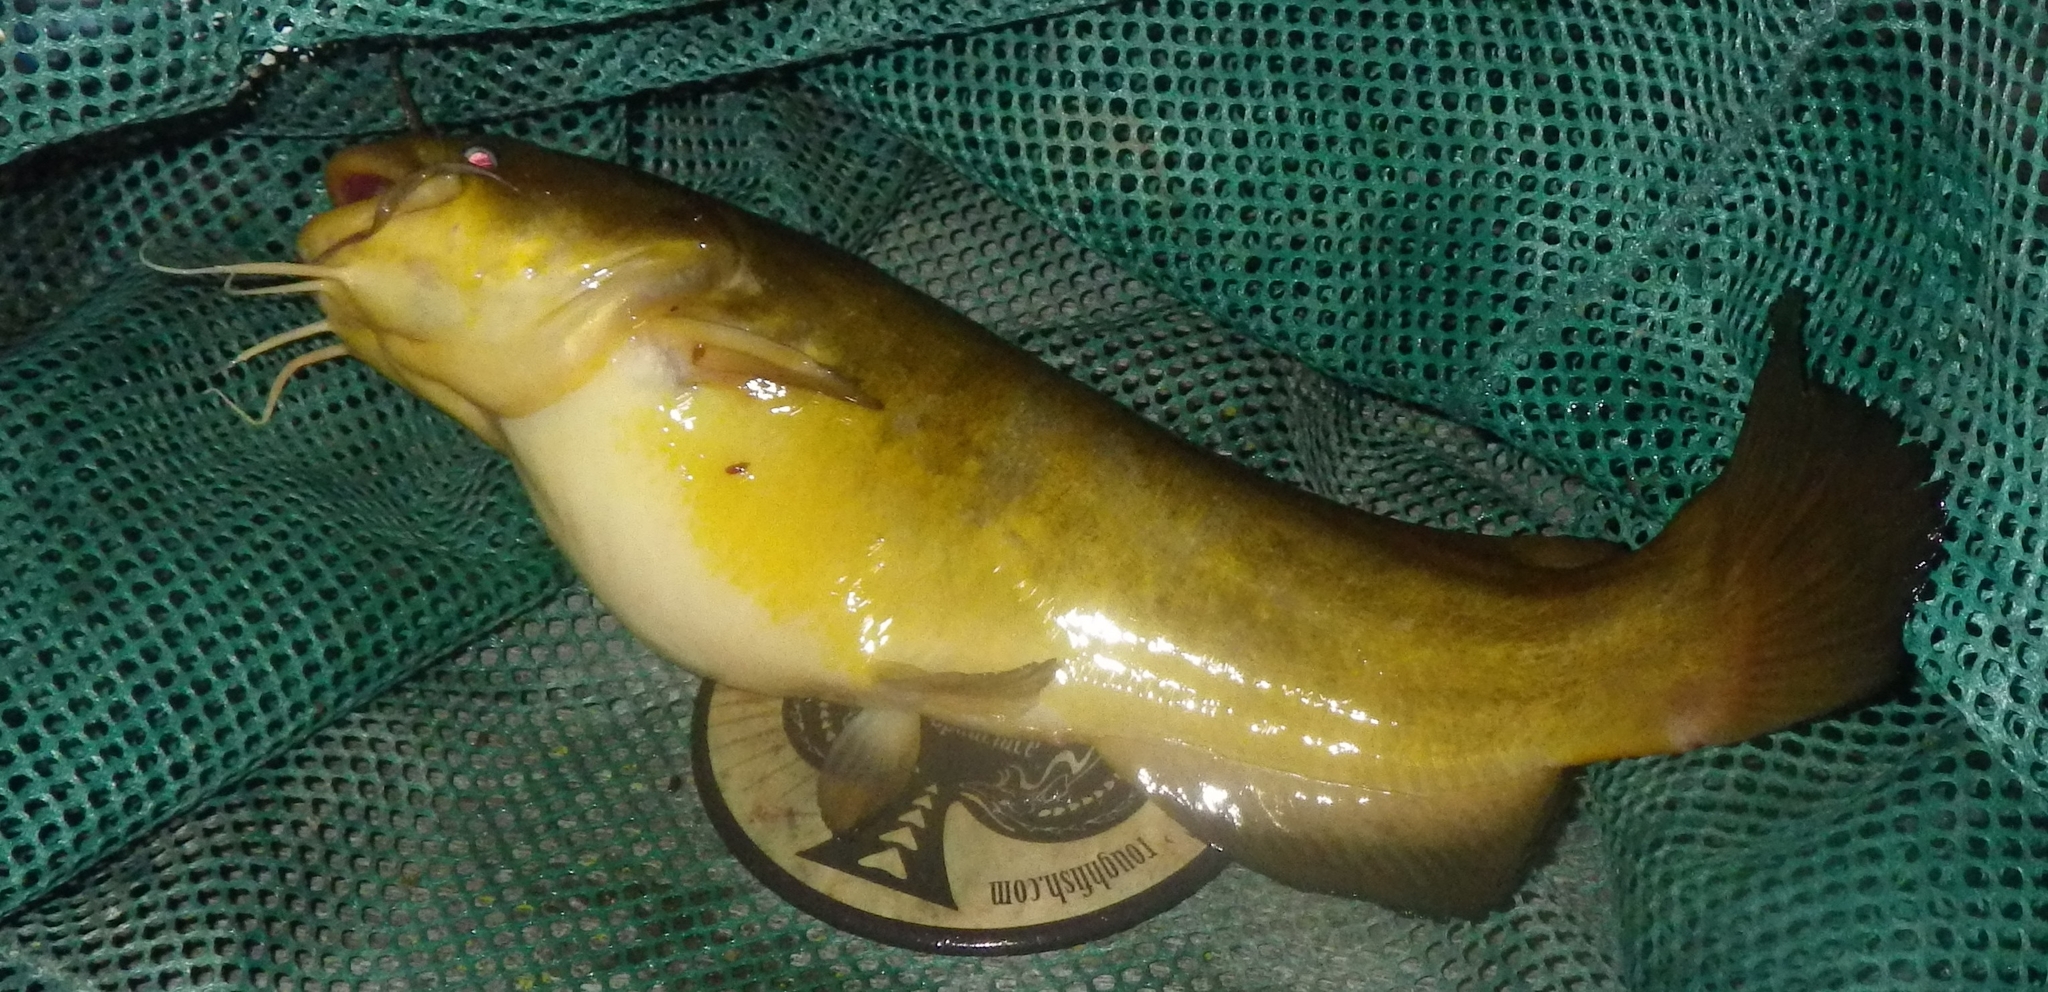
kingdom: Animalia
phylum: Chordata
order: Siluriformes
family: Ictaluridae
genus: Ameiurus
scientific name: Ameiurus natalis
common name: Yellow bullhead
